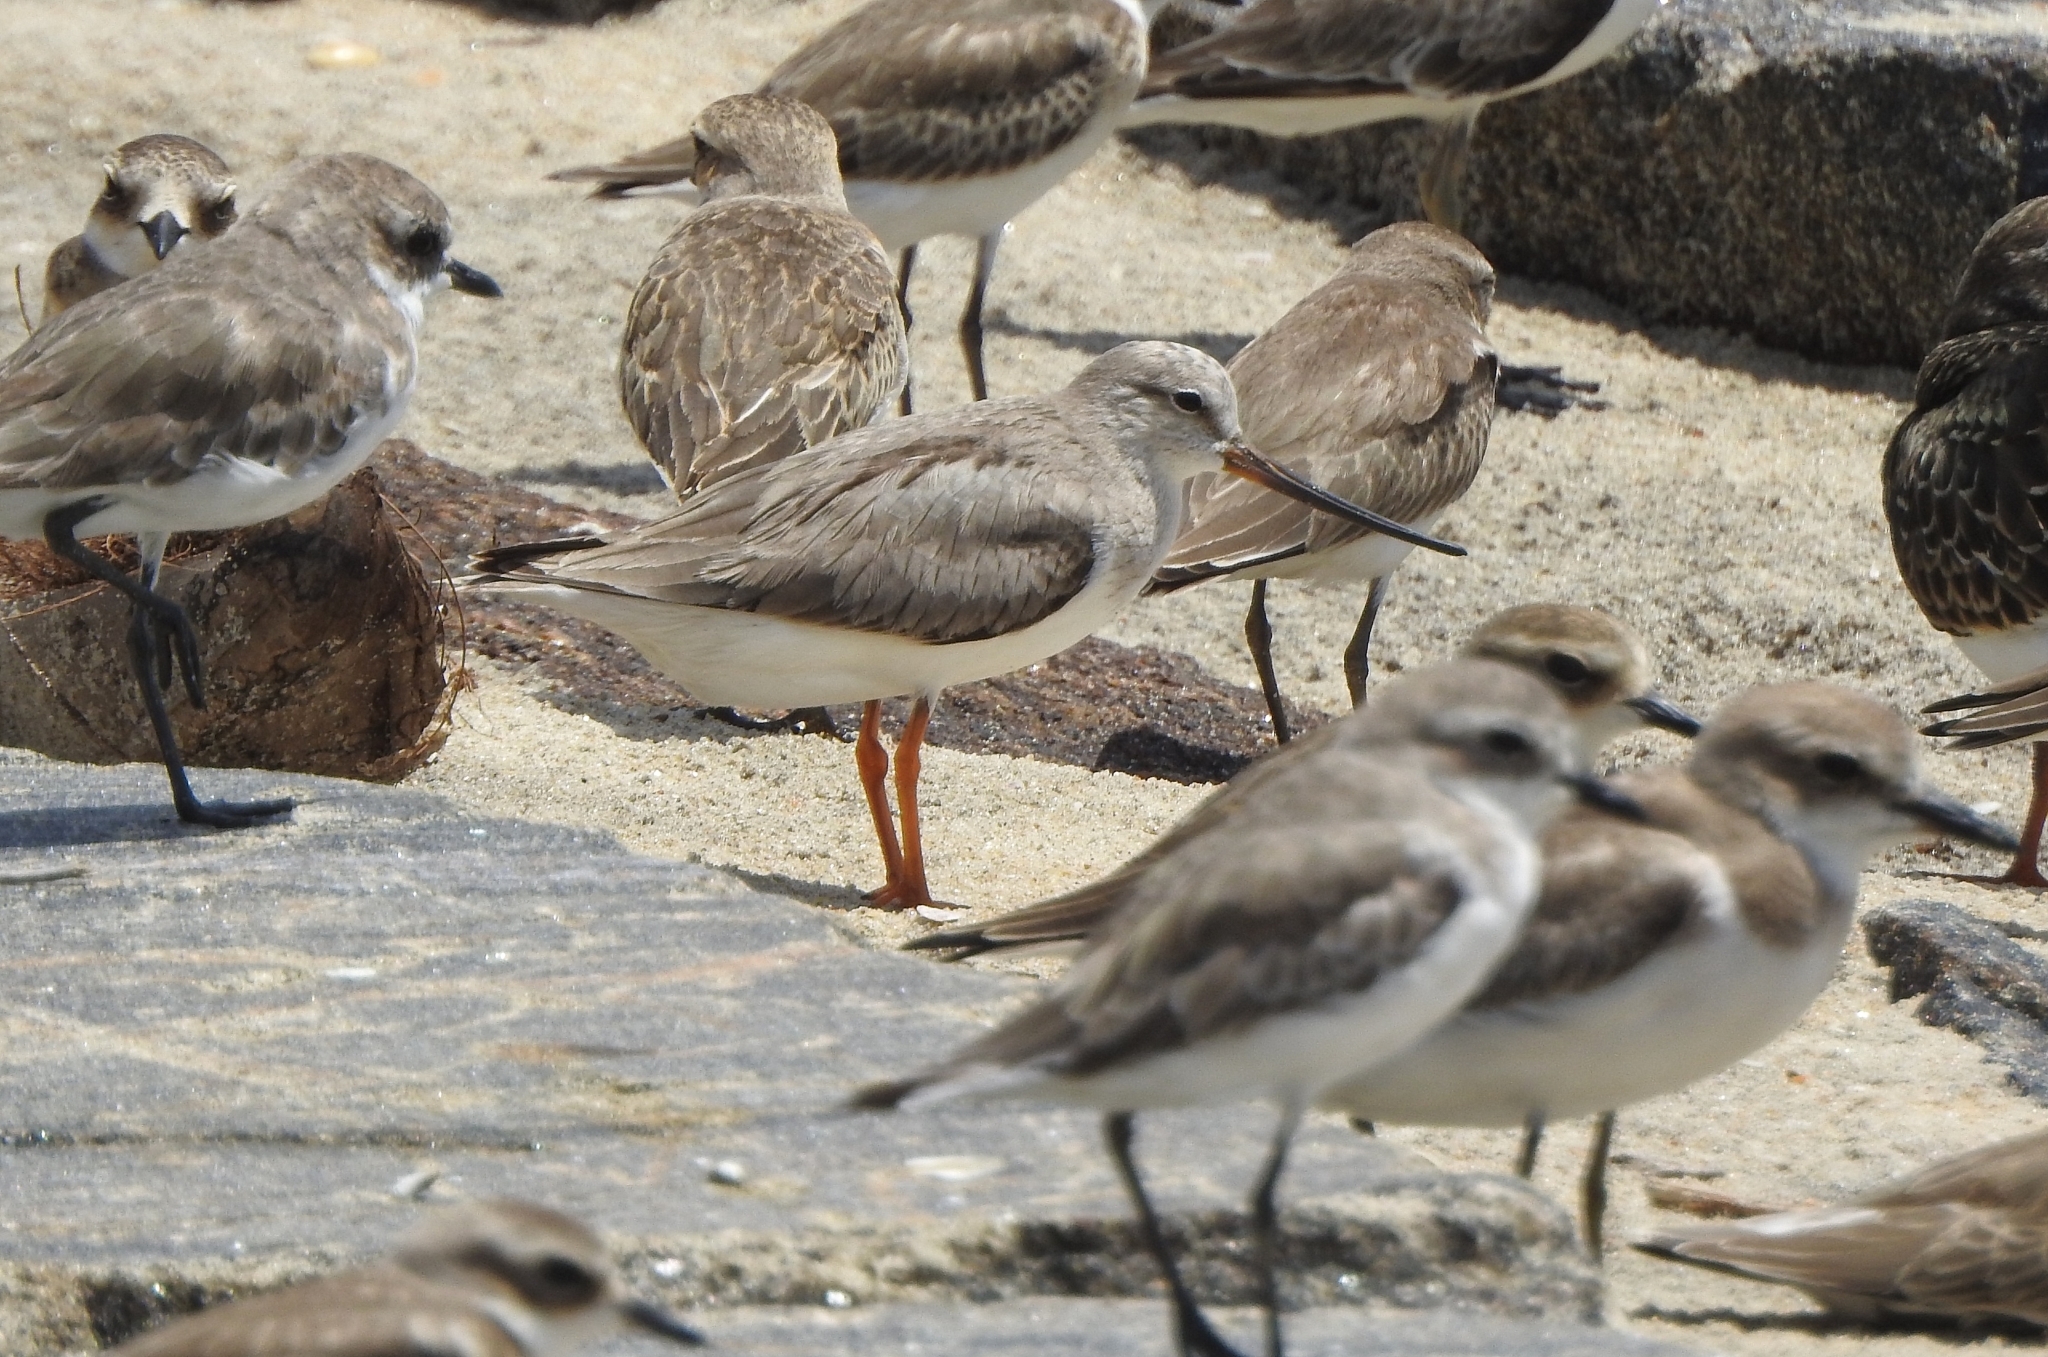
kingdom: Animalia
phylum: Chordata
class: Aves
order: Charadriiformes
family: Scolopacidae
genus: Xenus
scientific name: Xenus cinereus
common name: Terek sandpiper
